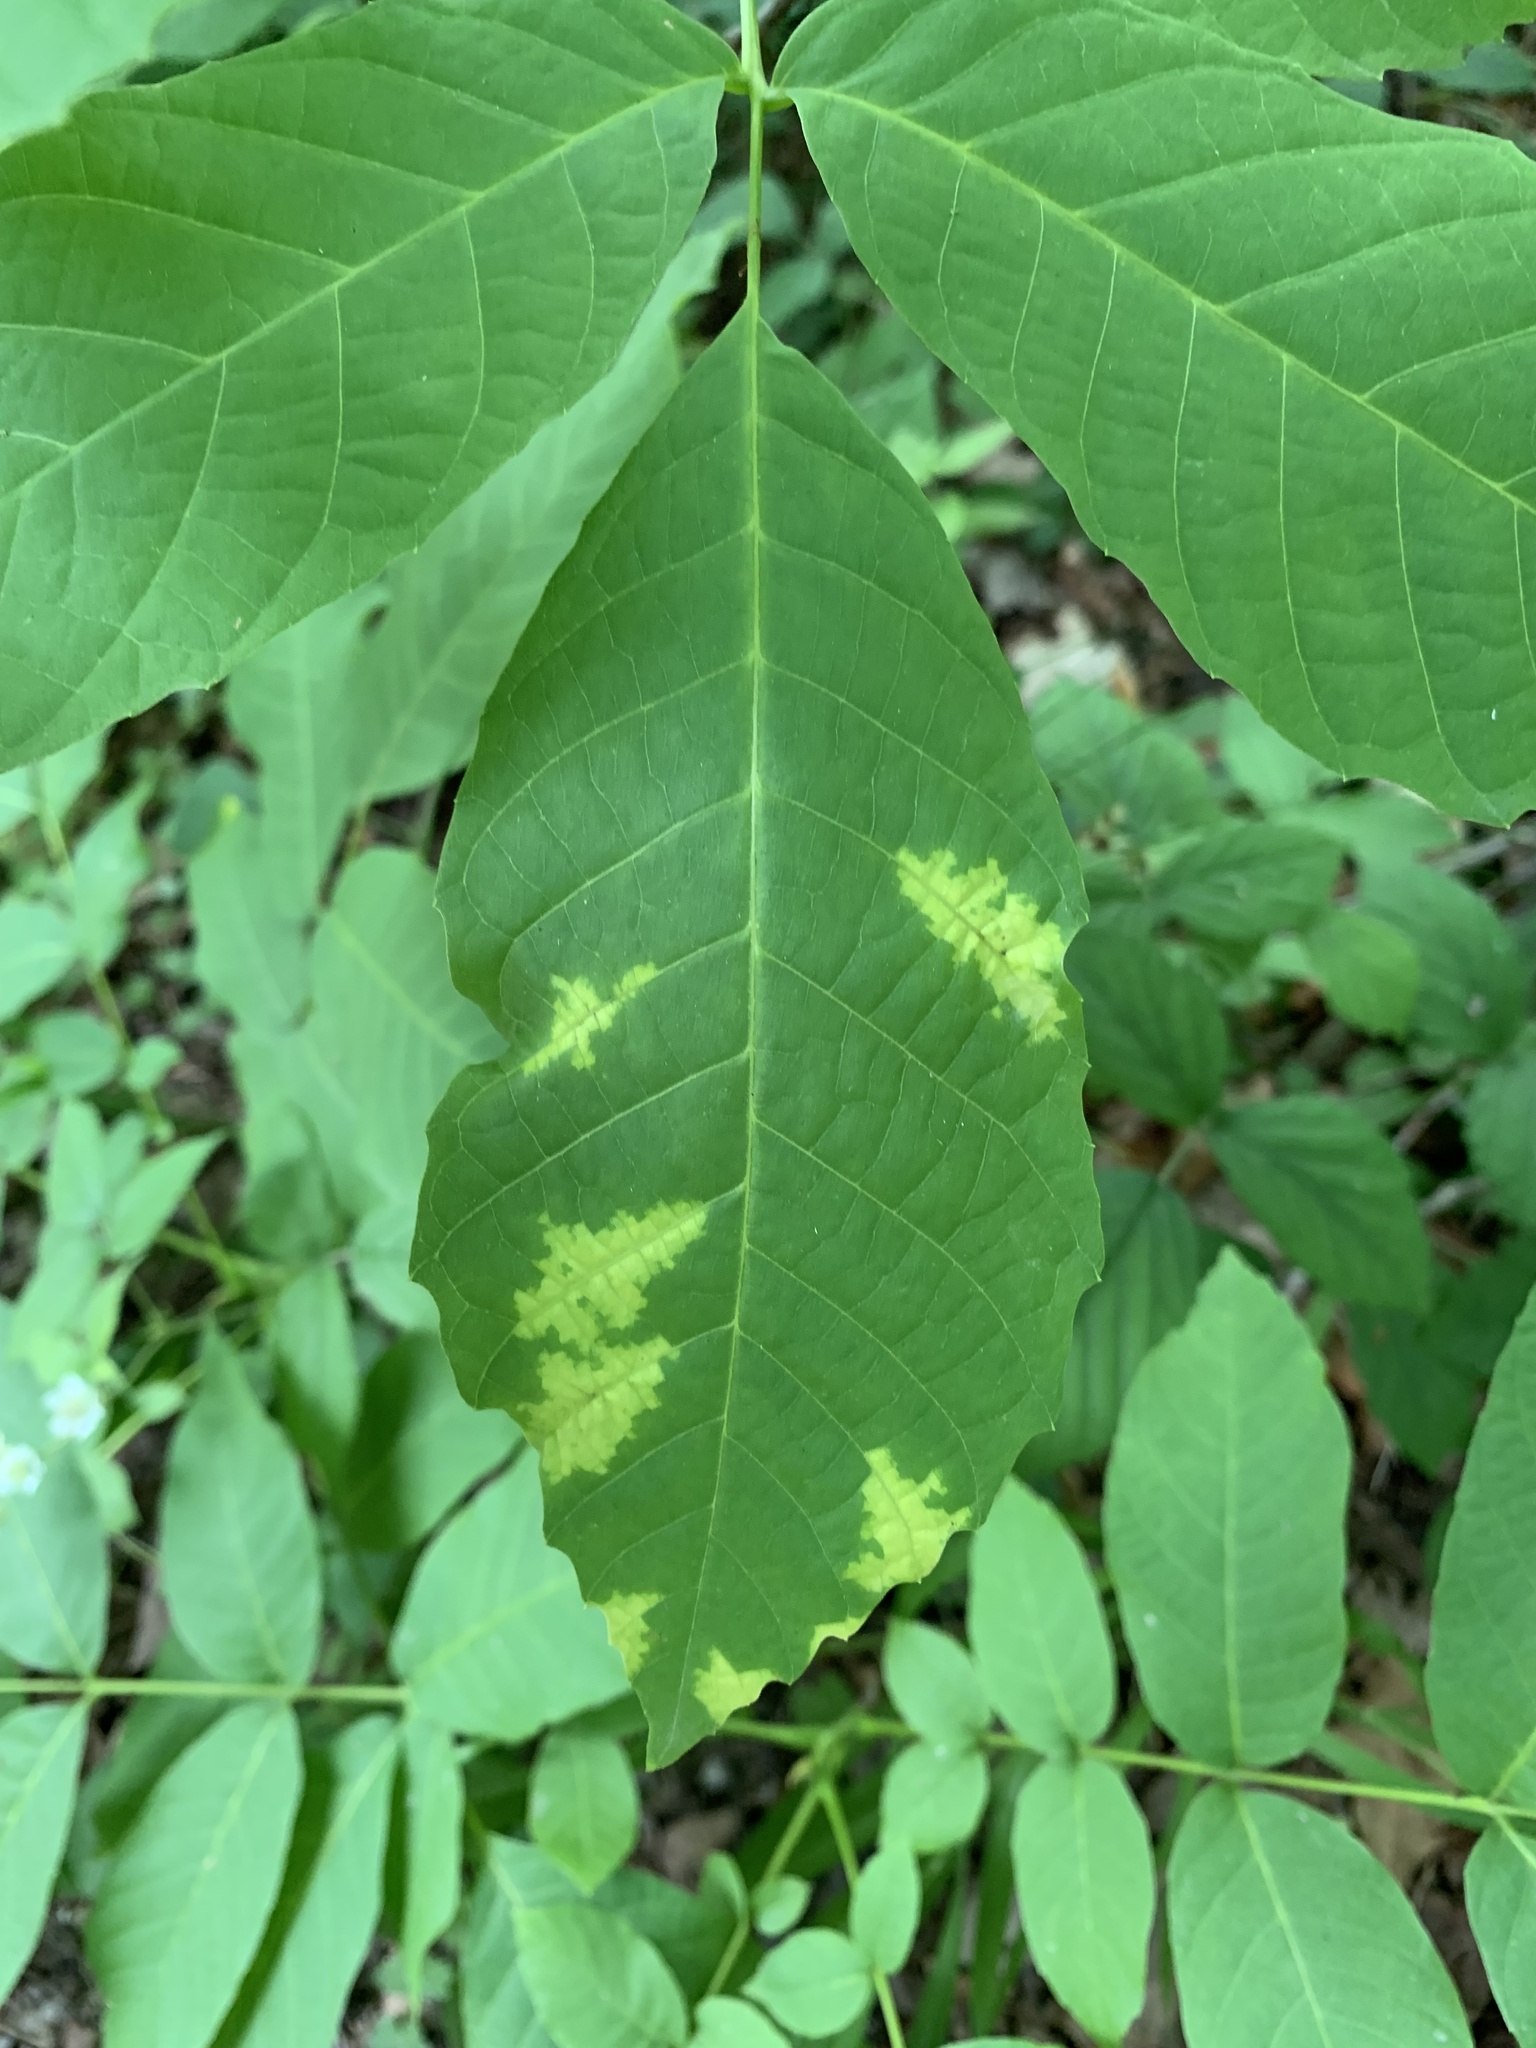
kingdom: Fungi
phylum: Basidiomycota
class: Exobasidiomycetes
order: Microstromatales
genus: Pseudomicrostroma
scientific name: Pseudomicrostroma juglandis
